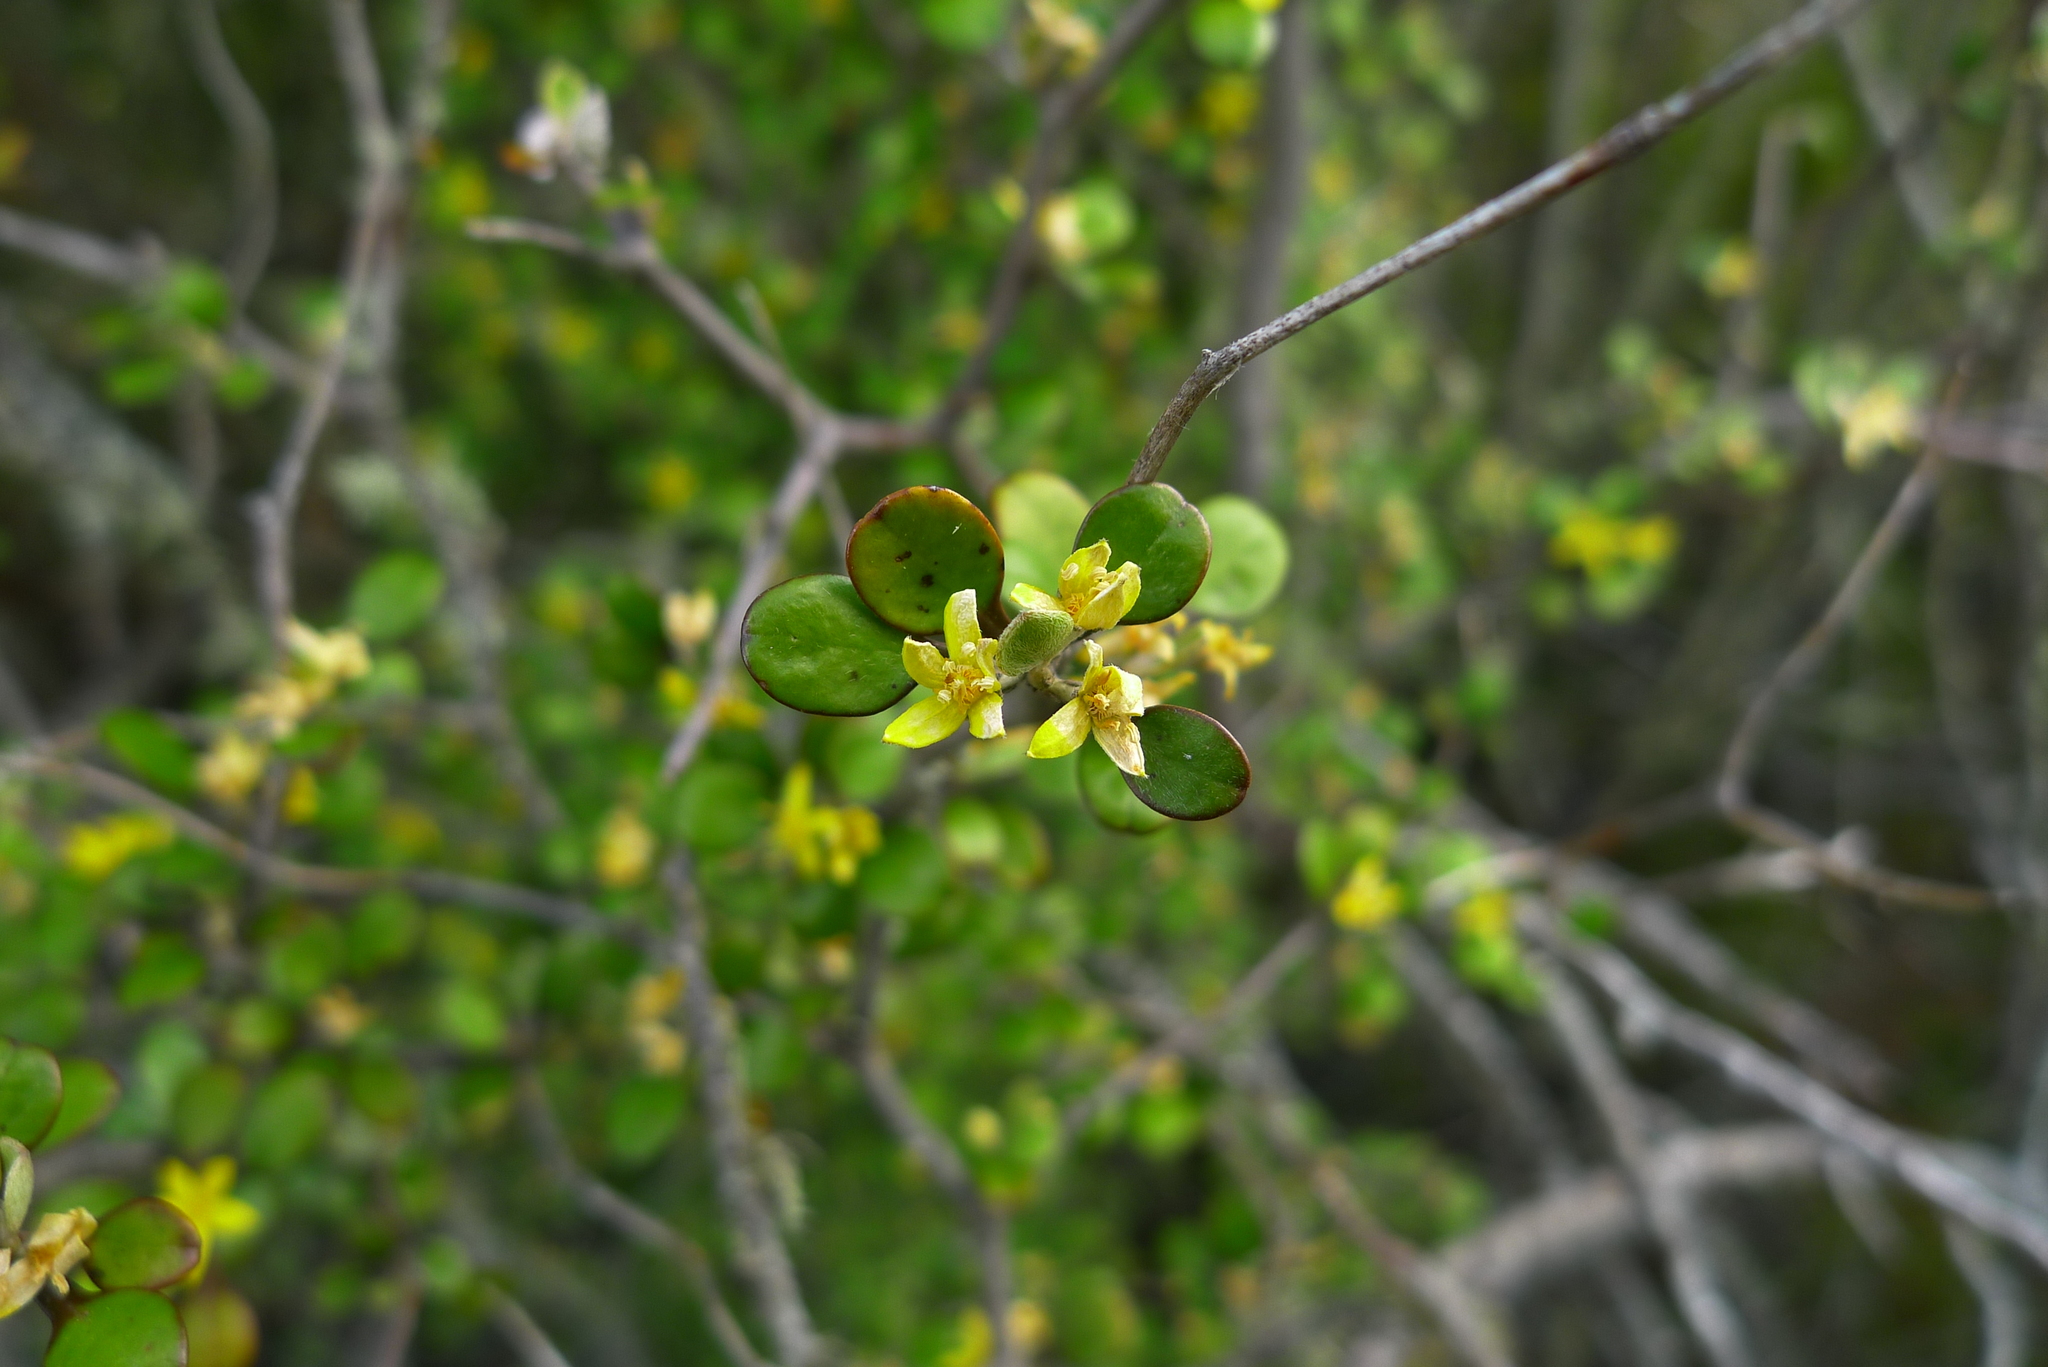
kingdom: Plantae
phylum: Tracheophyta
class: Magnoliopsida
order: Asterales
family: Argophyllaceae
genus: Corokia
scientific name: Corokia cotoneaster
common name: Wire nettingbush
